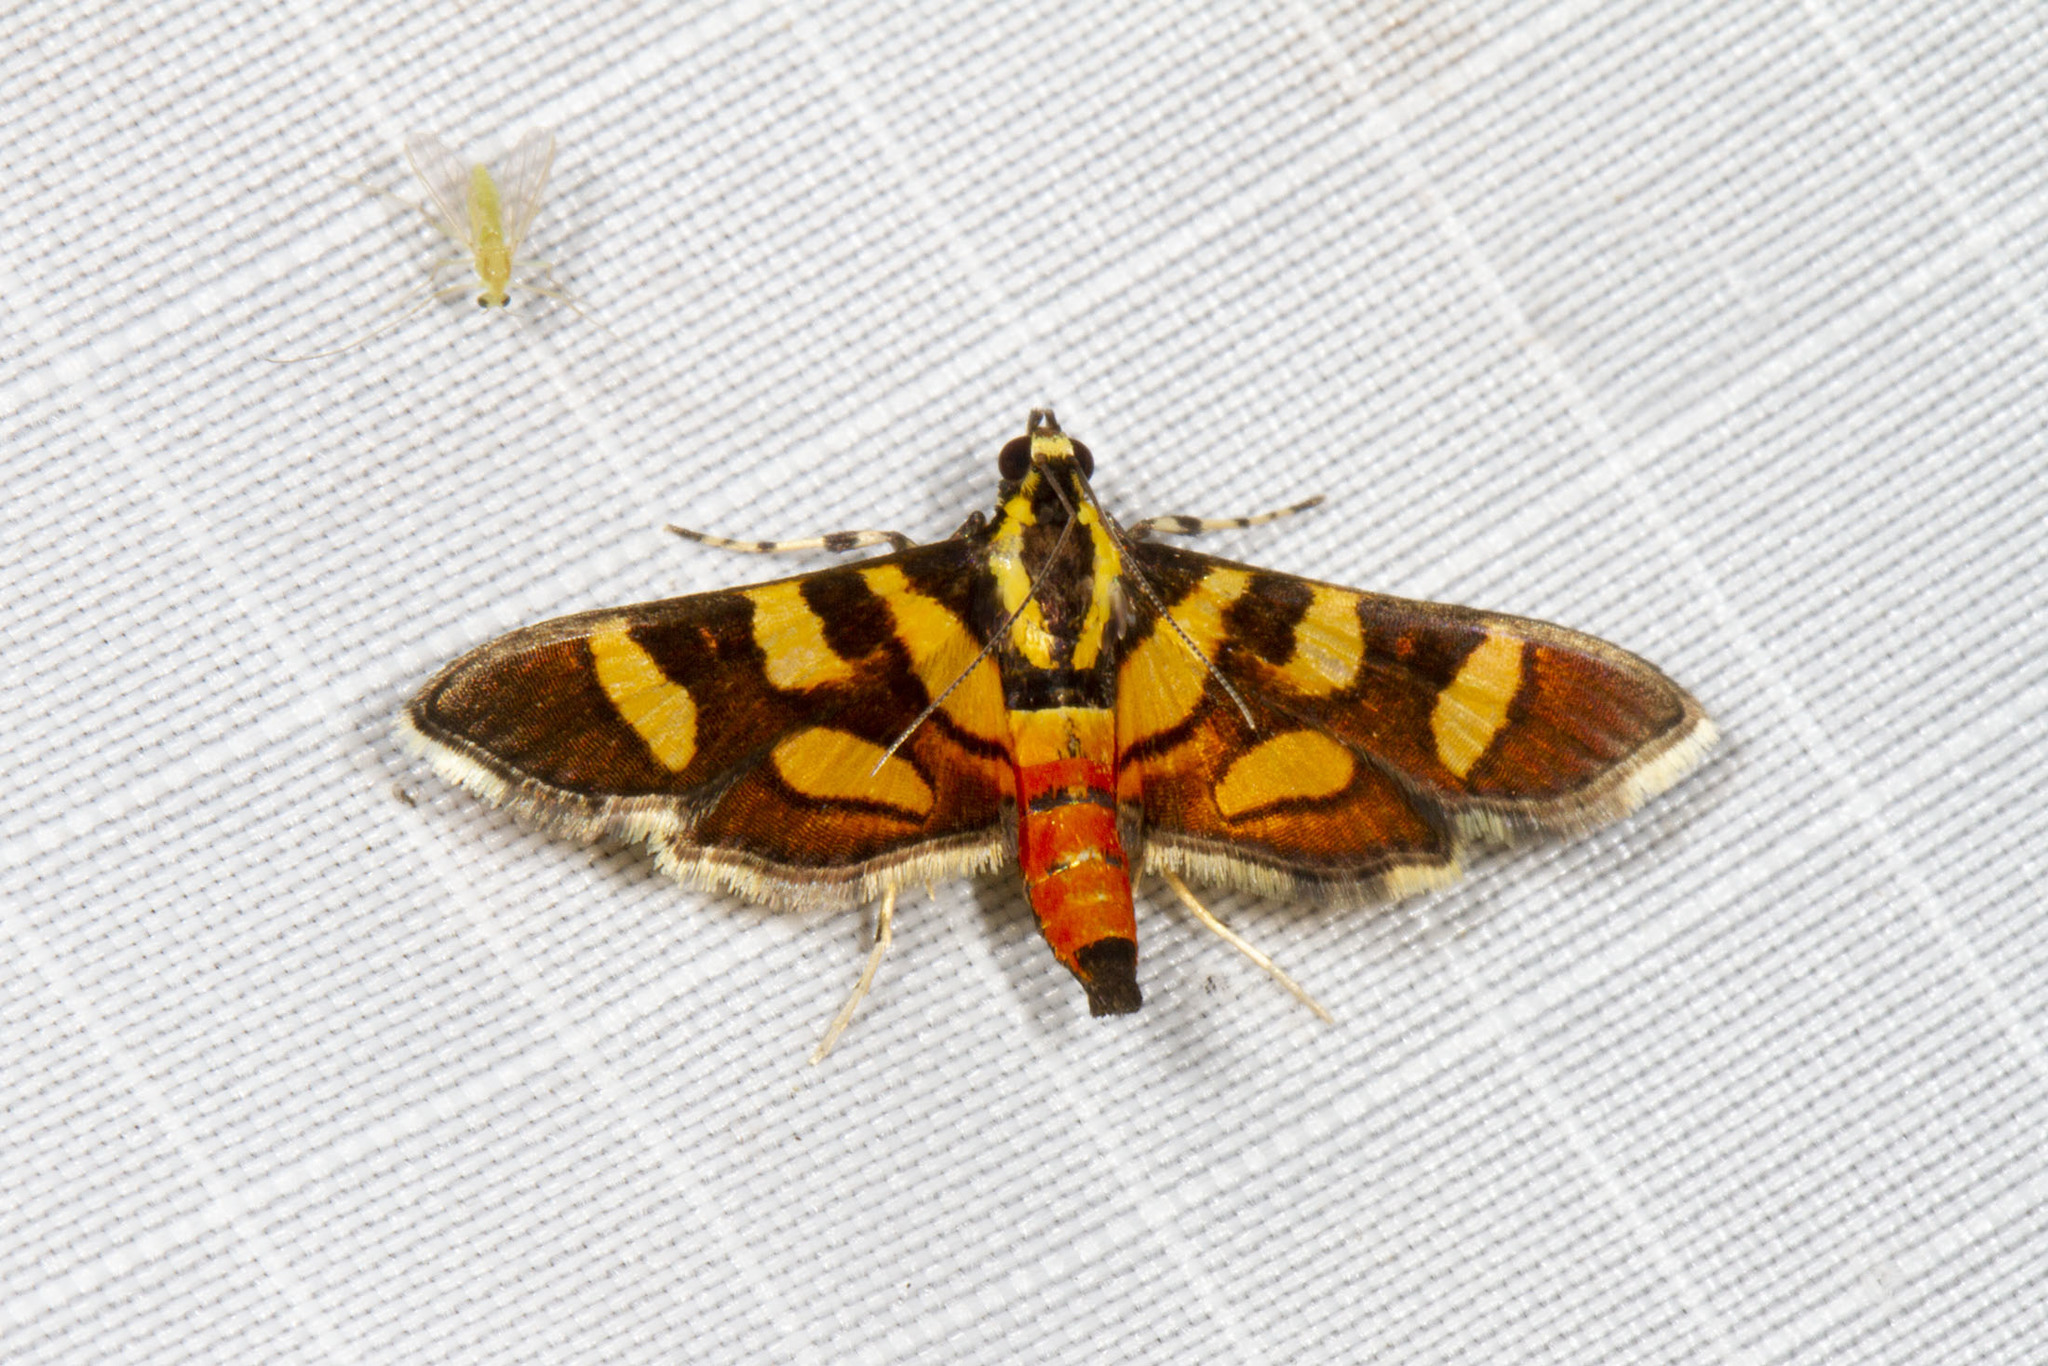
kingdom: Animalia
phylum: Arthropoda
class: Insecta
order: Lepidoptera
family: Crambidae
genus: Syngamia
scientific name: Syngamia florella
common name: Orange-spotted flower moth
